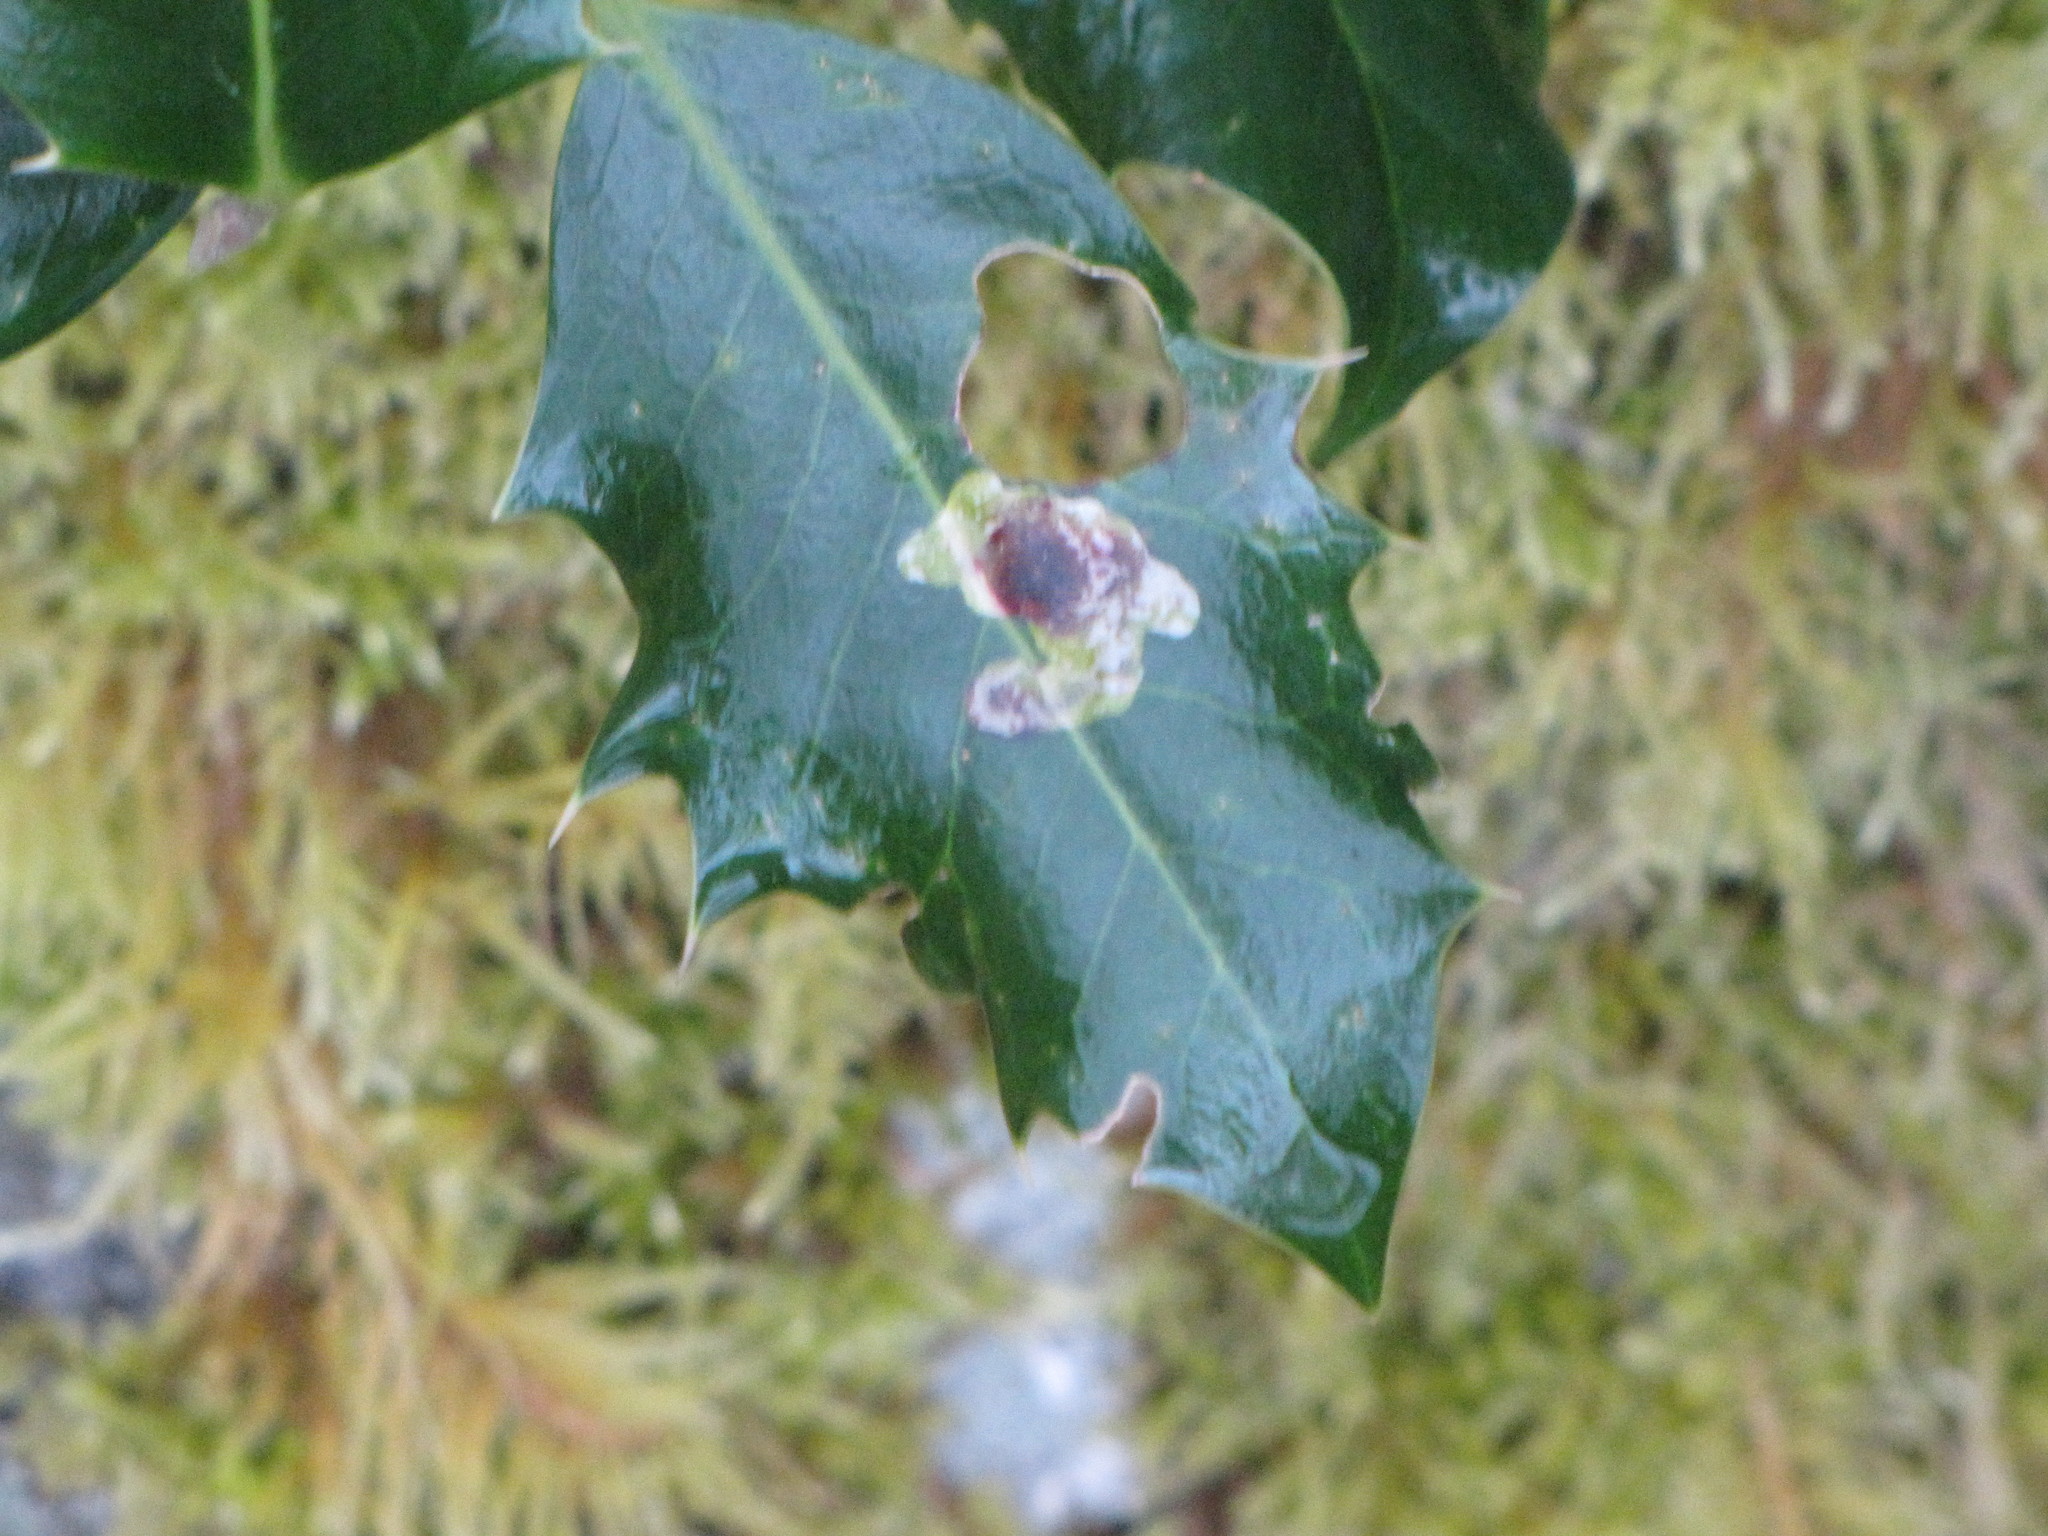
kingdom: Plantae
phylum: Tracheophyta
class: Magnoliopsida
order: Aquifoliales
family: Aquifoliaceae
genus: Ilex
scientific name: Ilex aquifolium
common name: English holly
